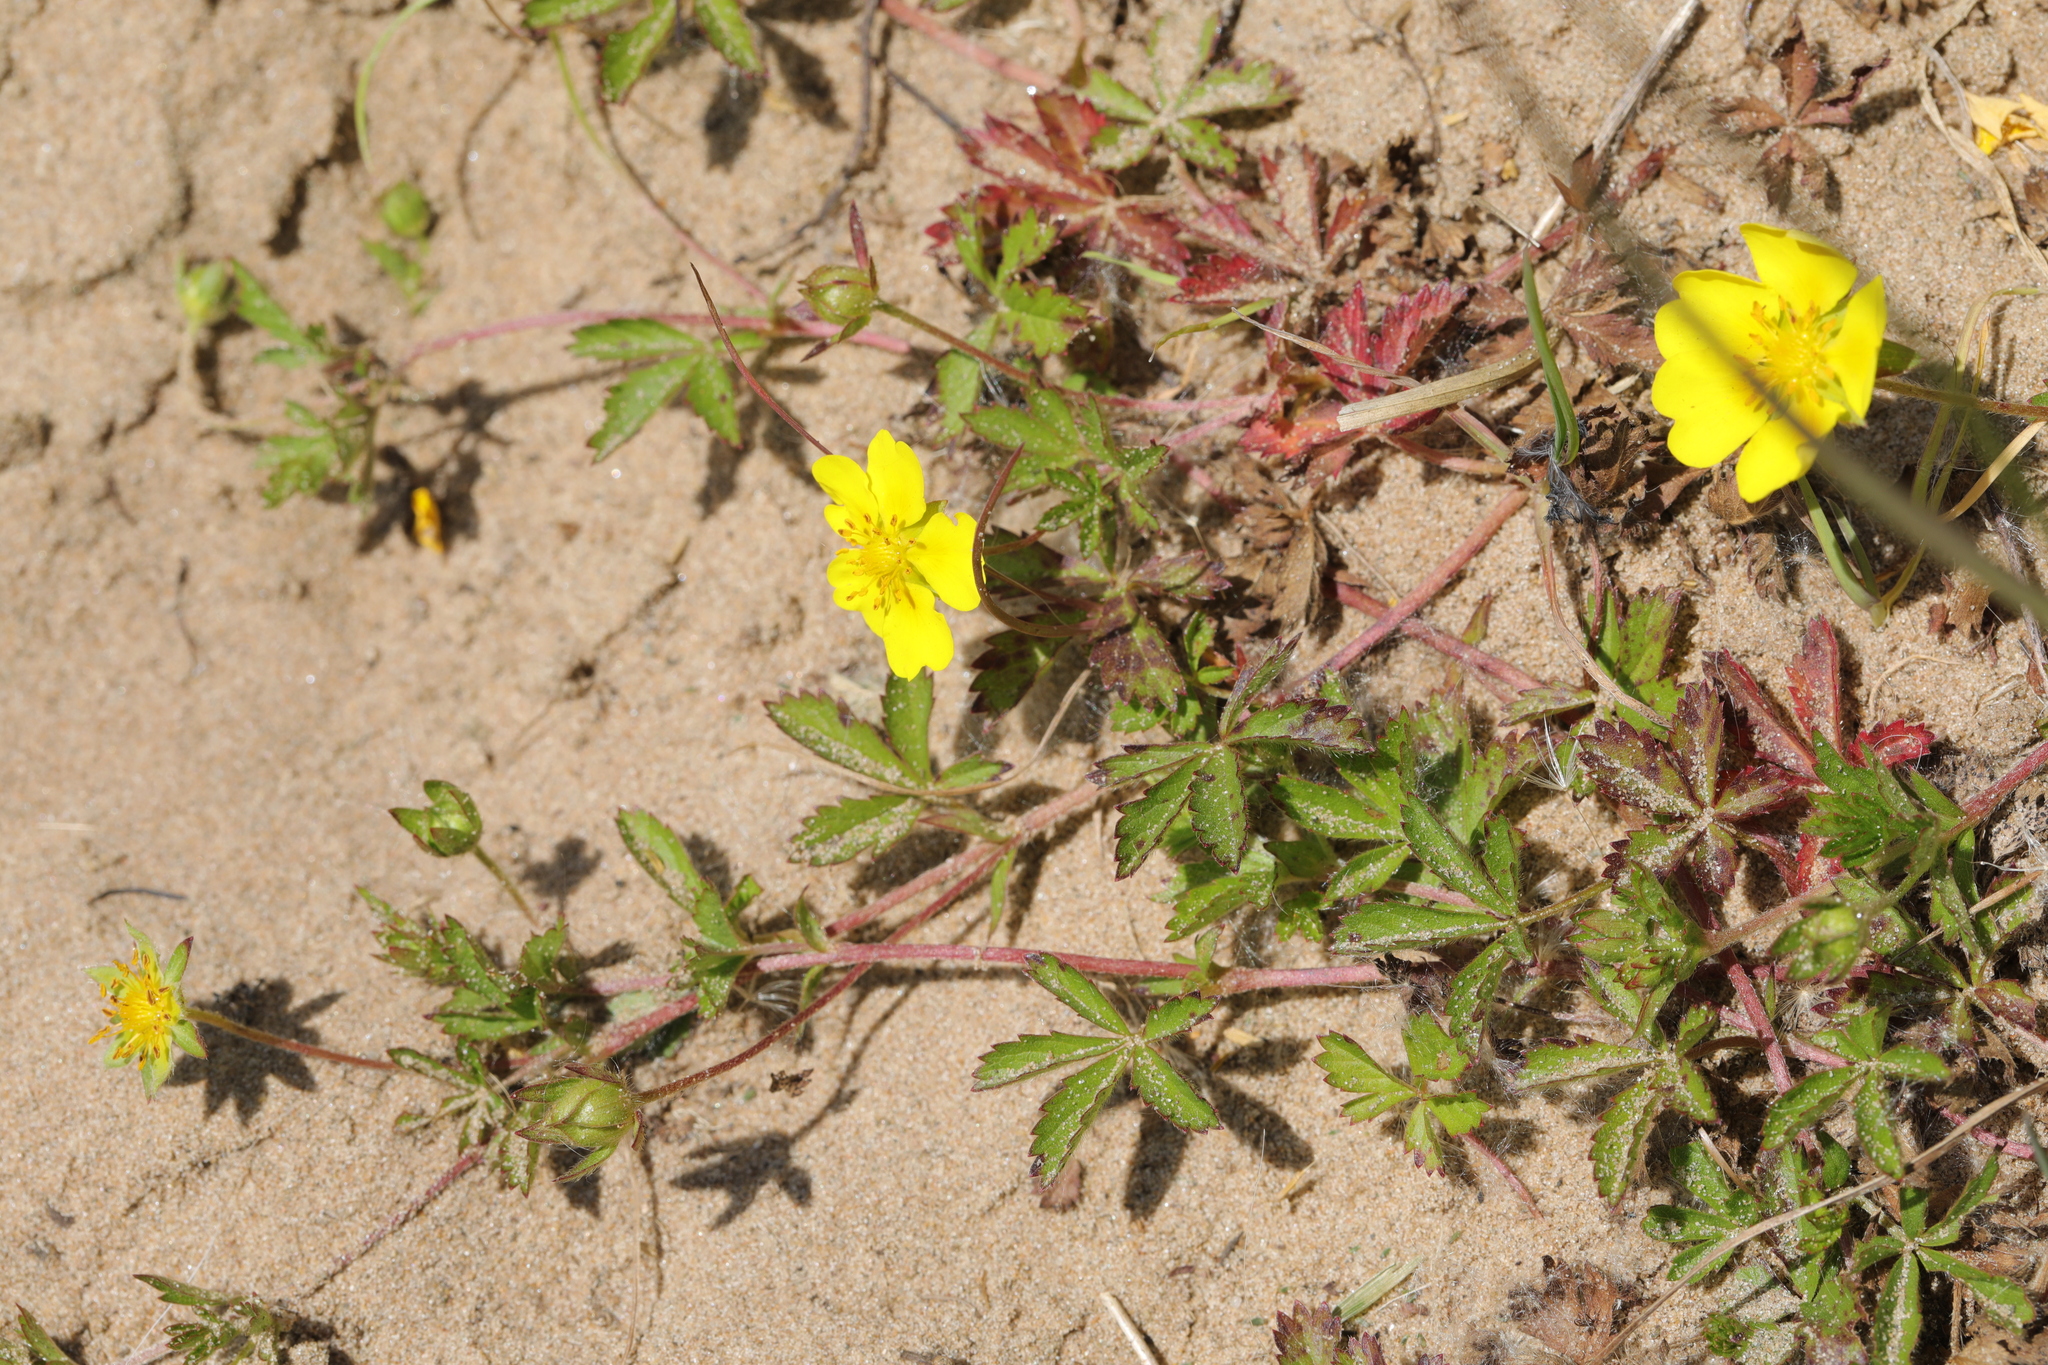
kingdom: Plantae
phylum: Tracheophyta
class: Magnoliopsida
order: Rosales
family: Rosaceae
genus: Potentilla
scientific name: Potentilla reptans
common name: Creeping cinquefoil
